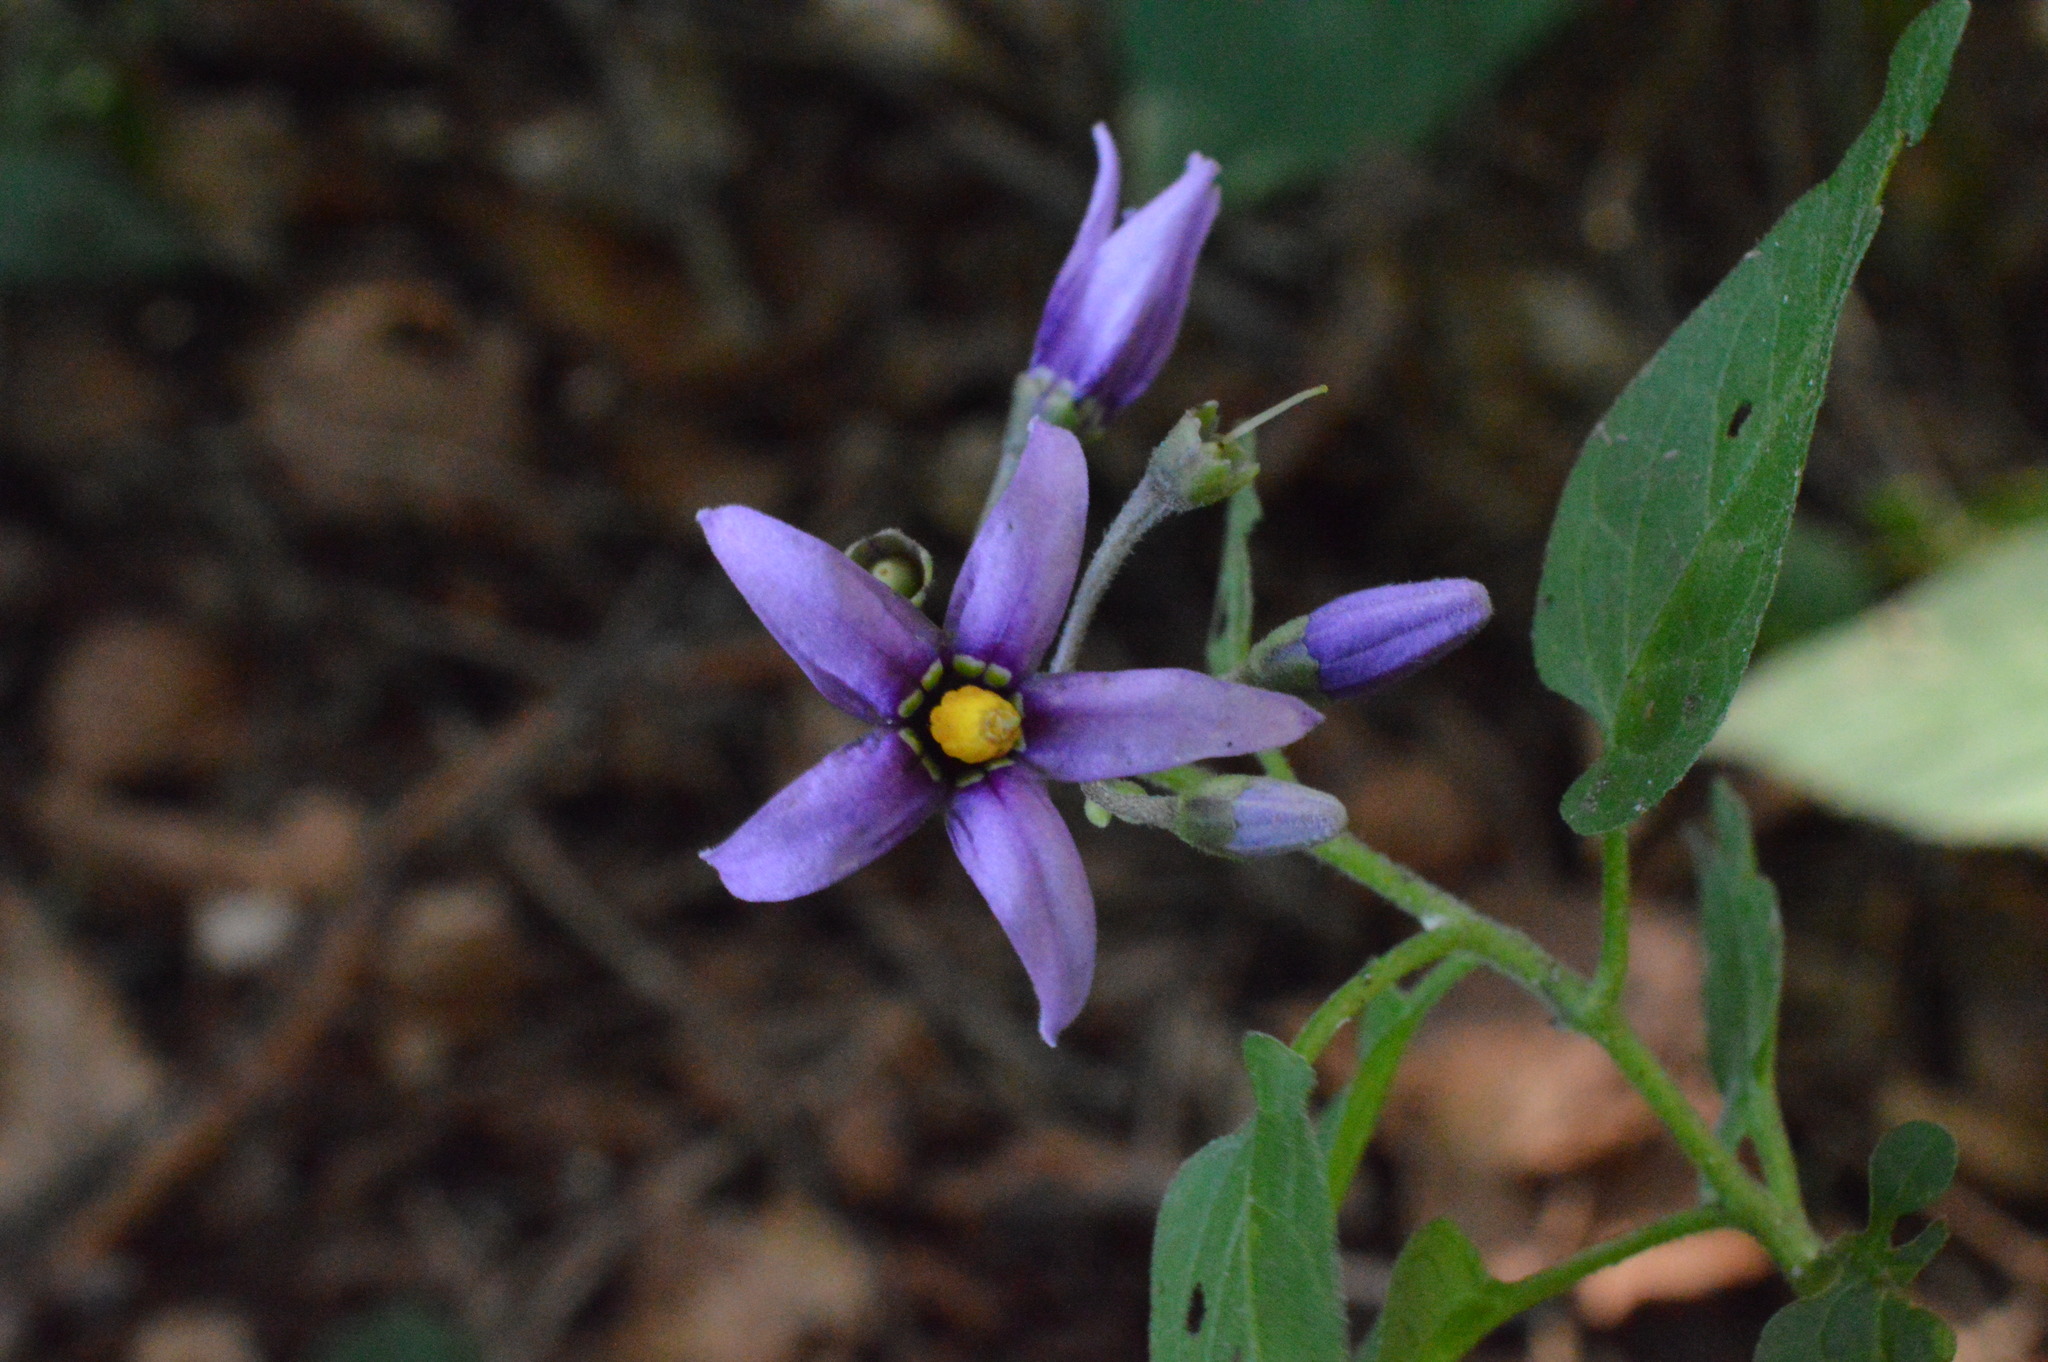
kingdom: Plantae
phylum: Tracheophyta
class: Magnoliopsida
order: Solanales
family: Solanaceae
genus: Solanum
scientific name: Solanum dulcamara
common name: Climbing nightshade
